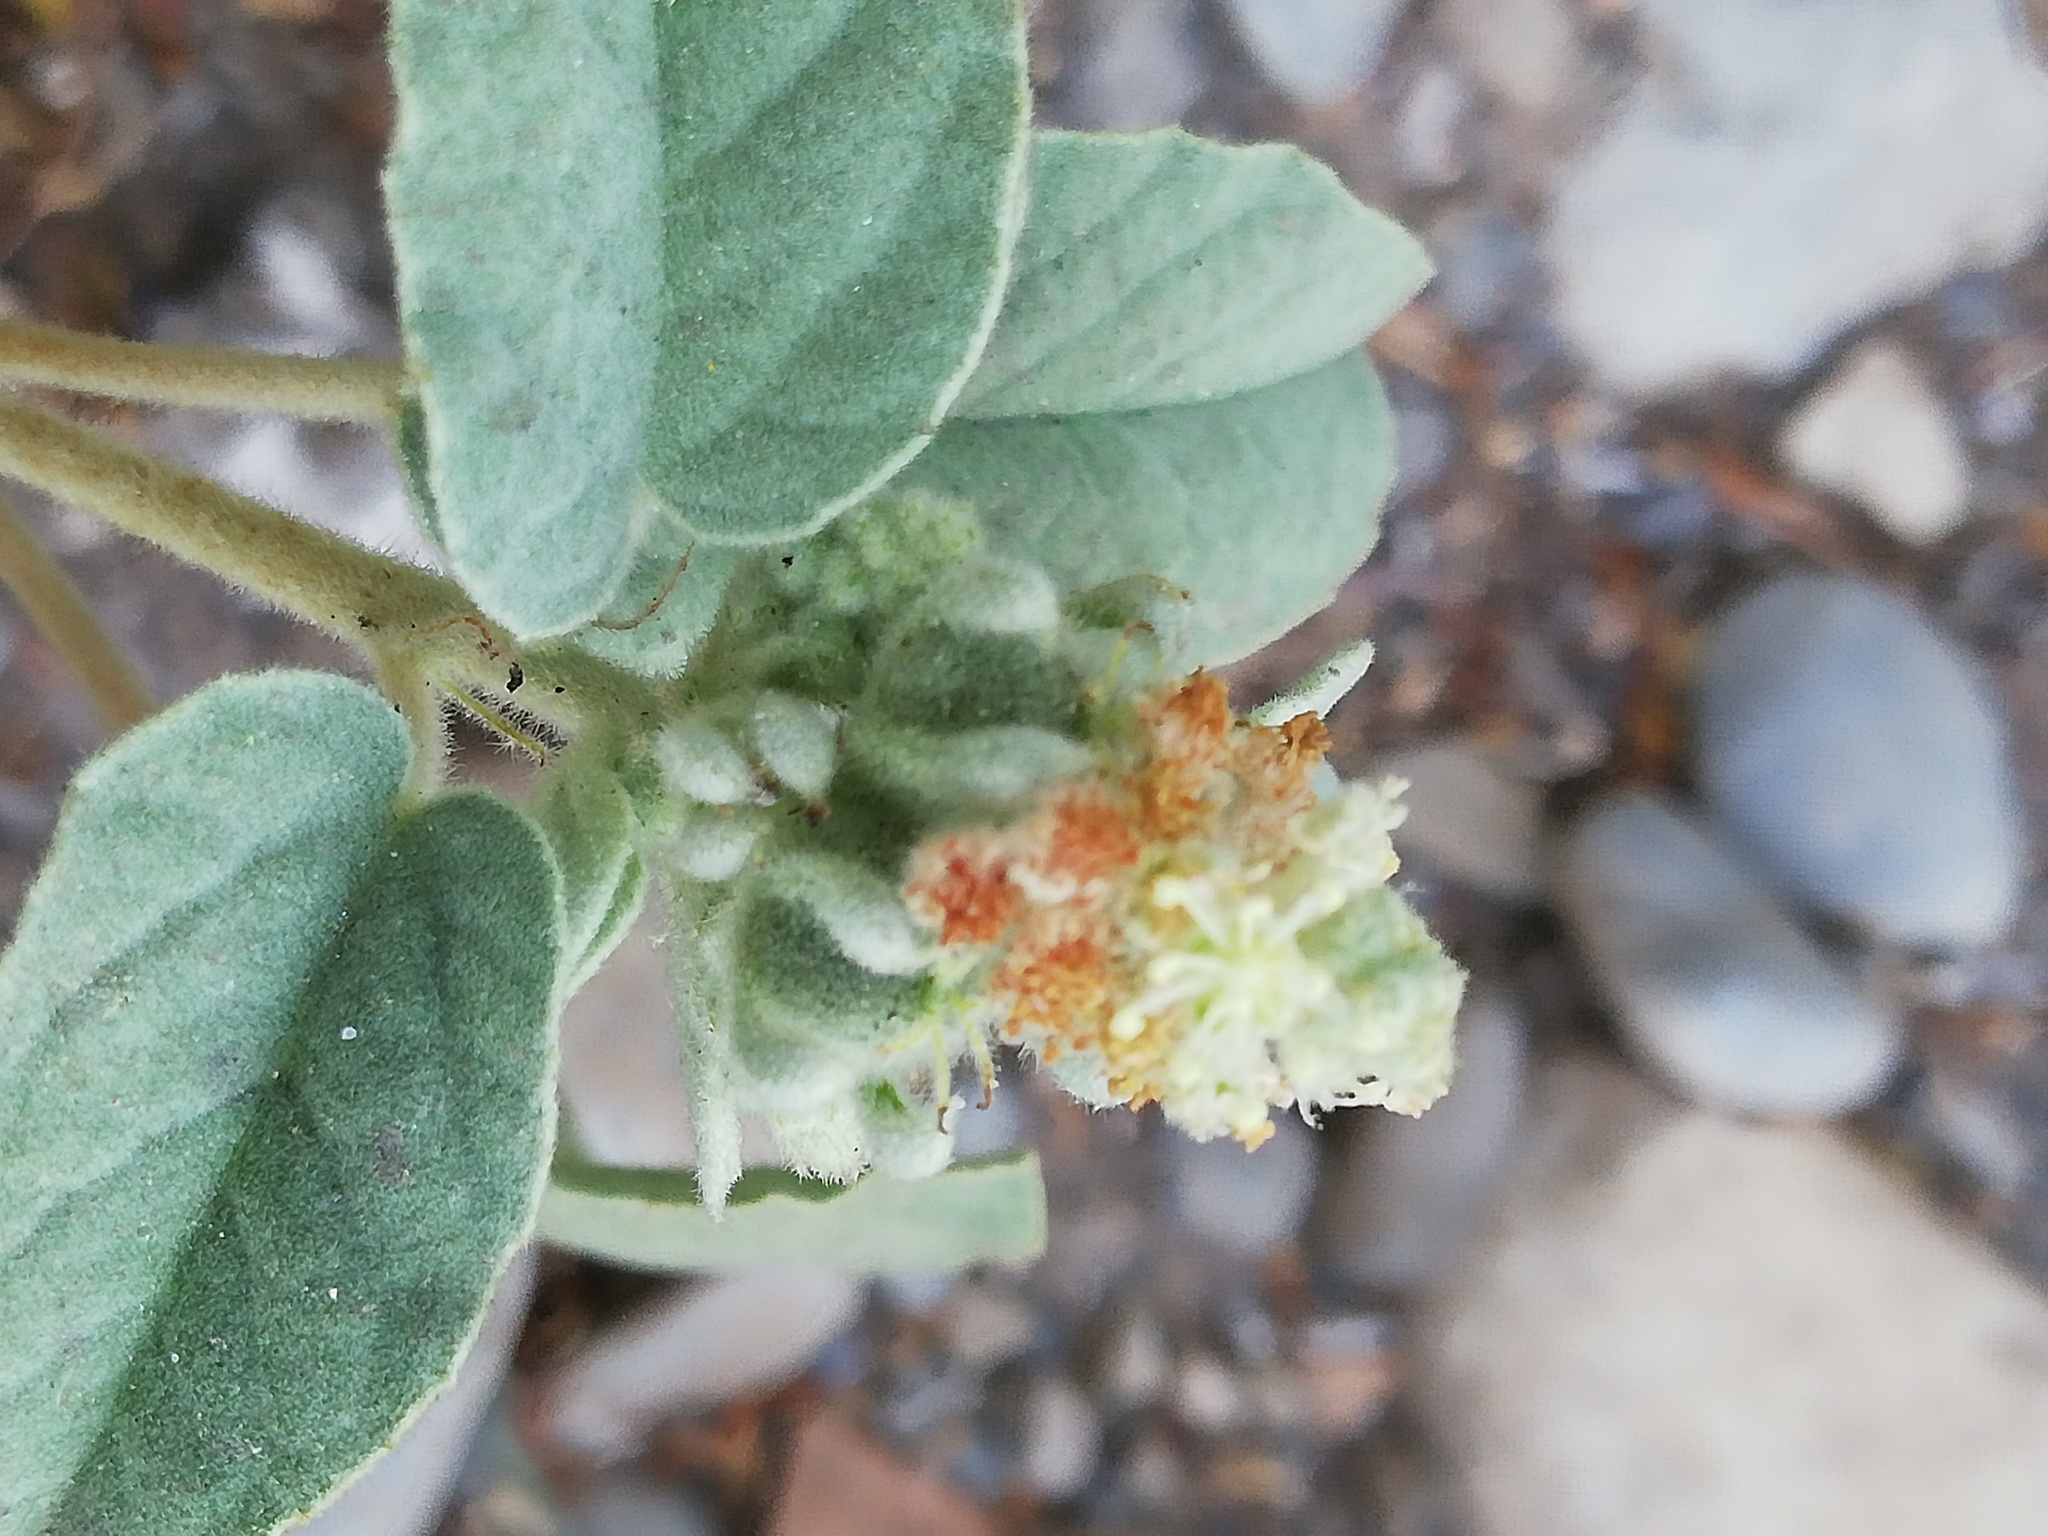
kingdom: Plantae
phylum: Tracheophyta
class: Magnoliopsida
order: Malpighiales
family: Euphorbiaceae
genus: Croton
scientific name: Croton leucophyllus
